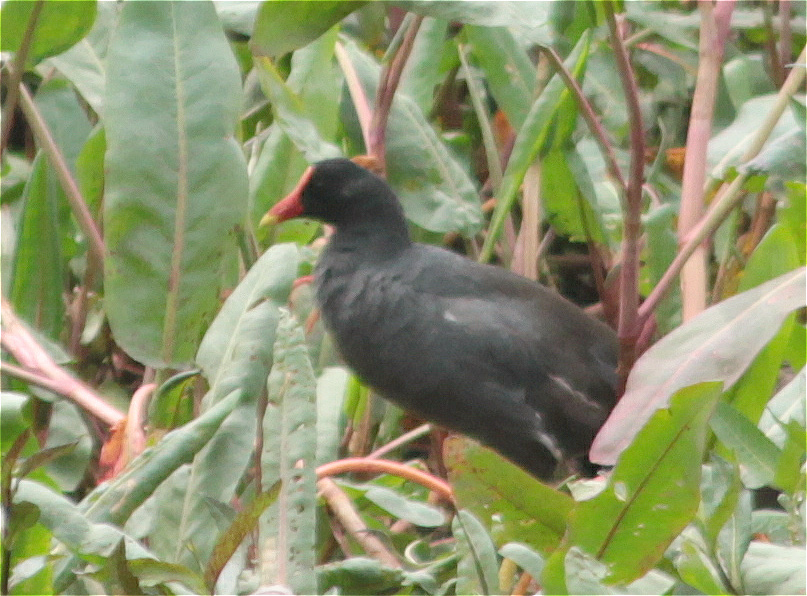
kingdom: Animalia
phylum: Chordata
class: Aves
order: Gruiformes
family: Rallidae
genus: Gallinula
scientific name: Gallinula chloropus
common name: Common moorhen
